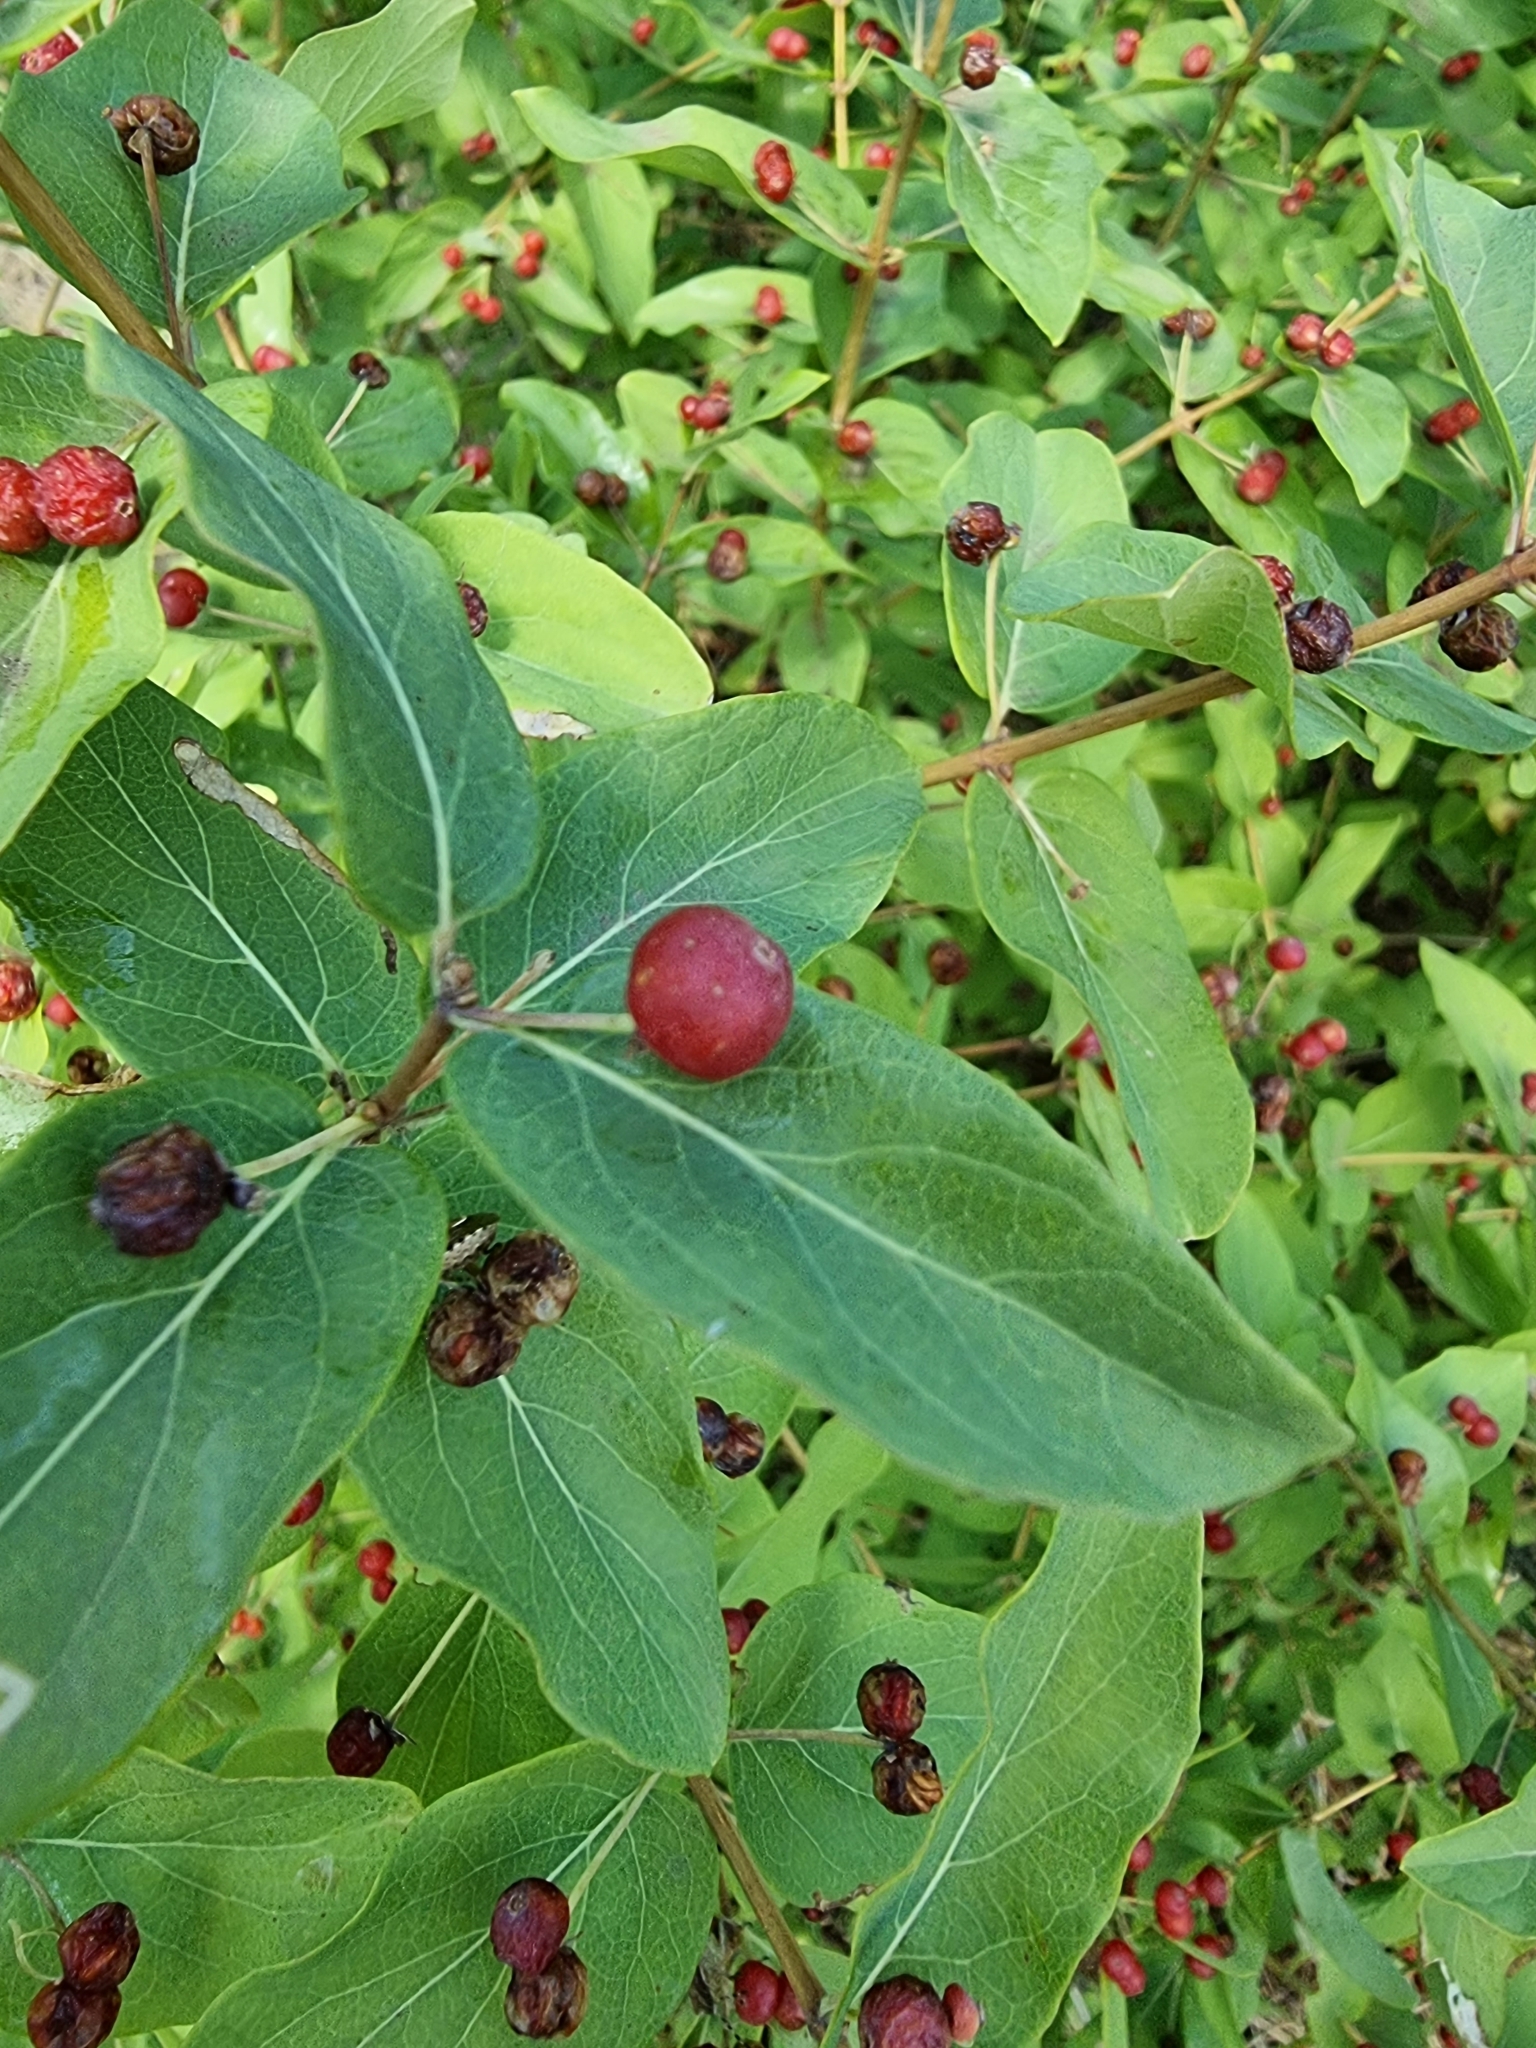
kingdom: Plantae
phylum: Tracheophyta
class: Magnoliopsida
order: Dipsacales
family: Caprifoliaceae
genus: Lonicera
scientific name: Lonicera tatarica
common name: Tatarian honeysuckle
